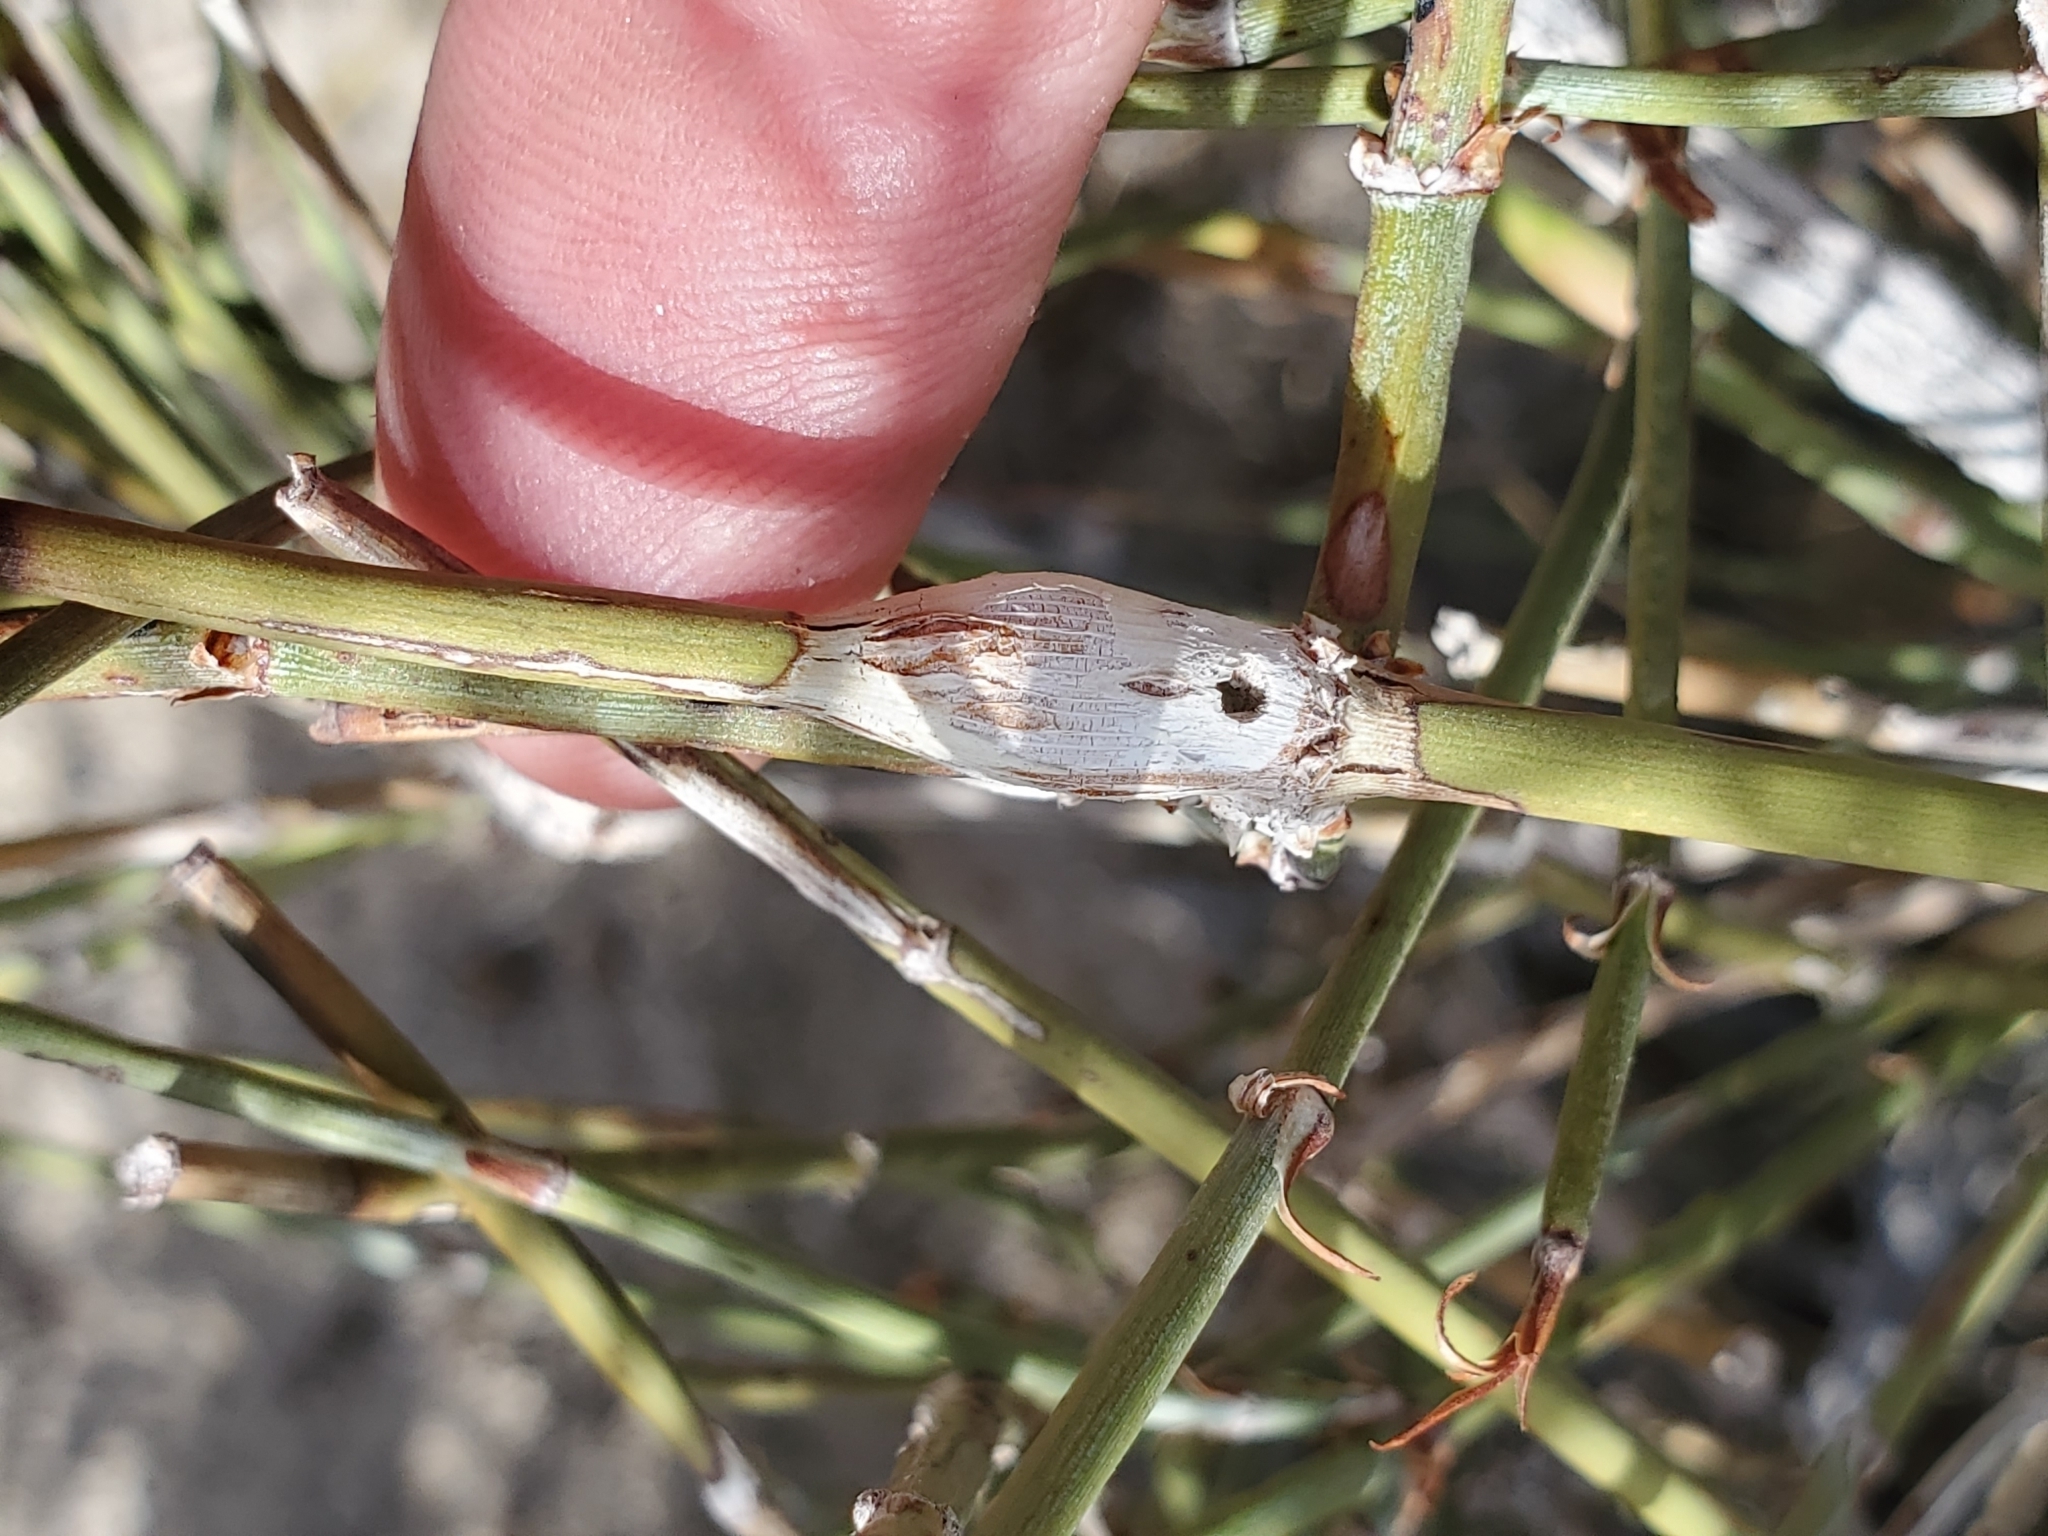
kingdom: Animalia
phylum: Arthropoda
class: Insecta
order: Diptera
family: Cecidomyiidae
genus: Lasioptera
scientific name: Lasioptera ephedrae
